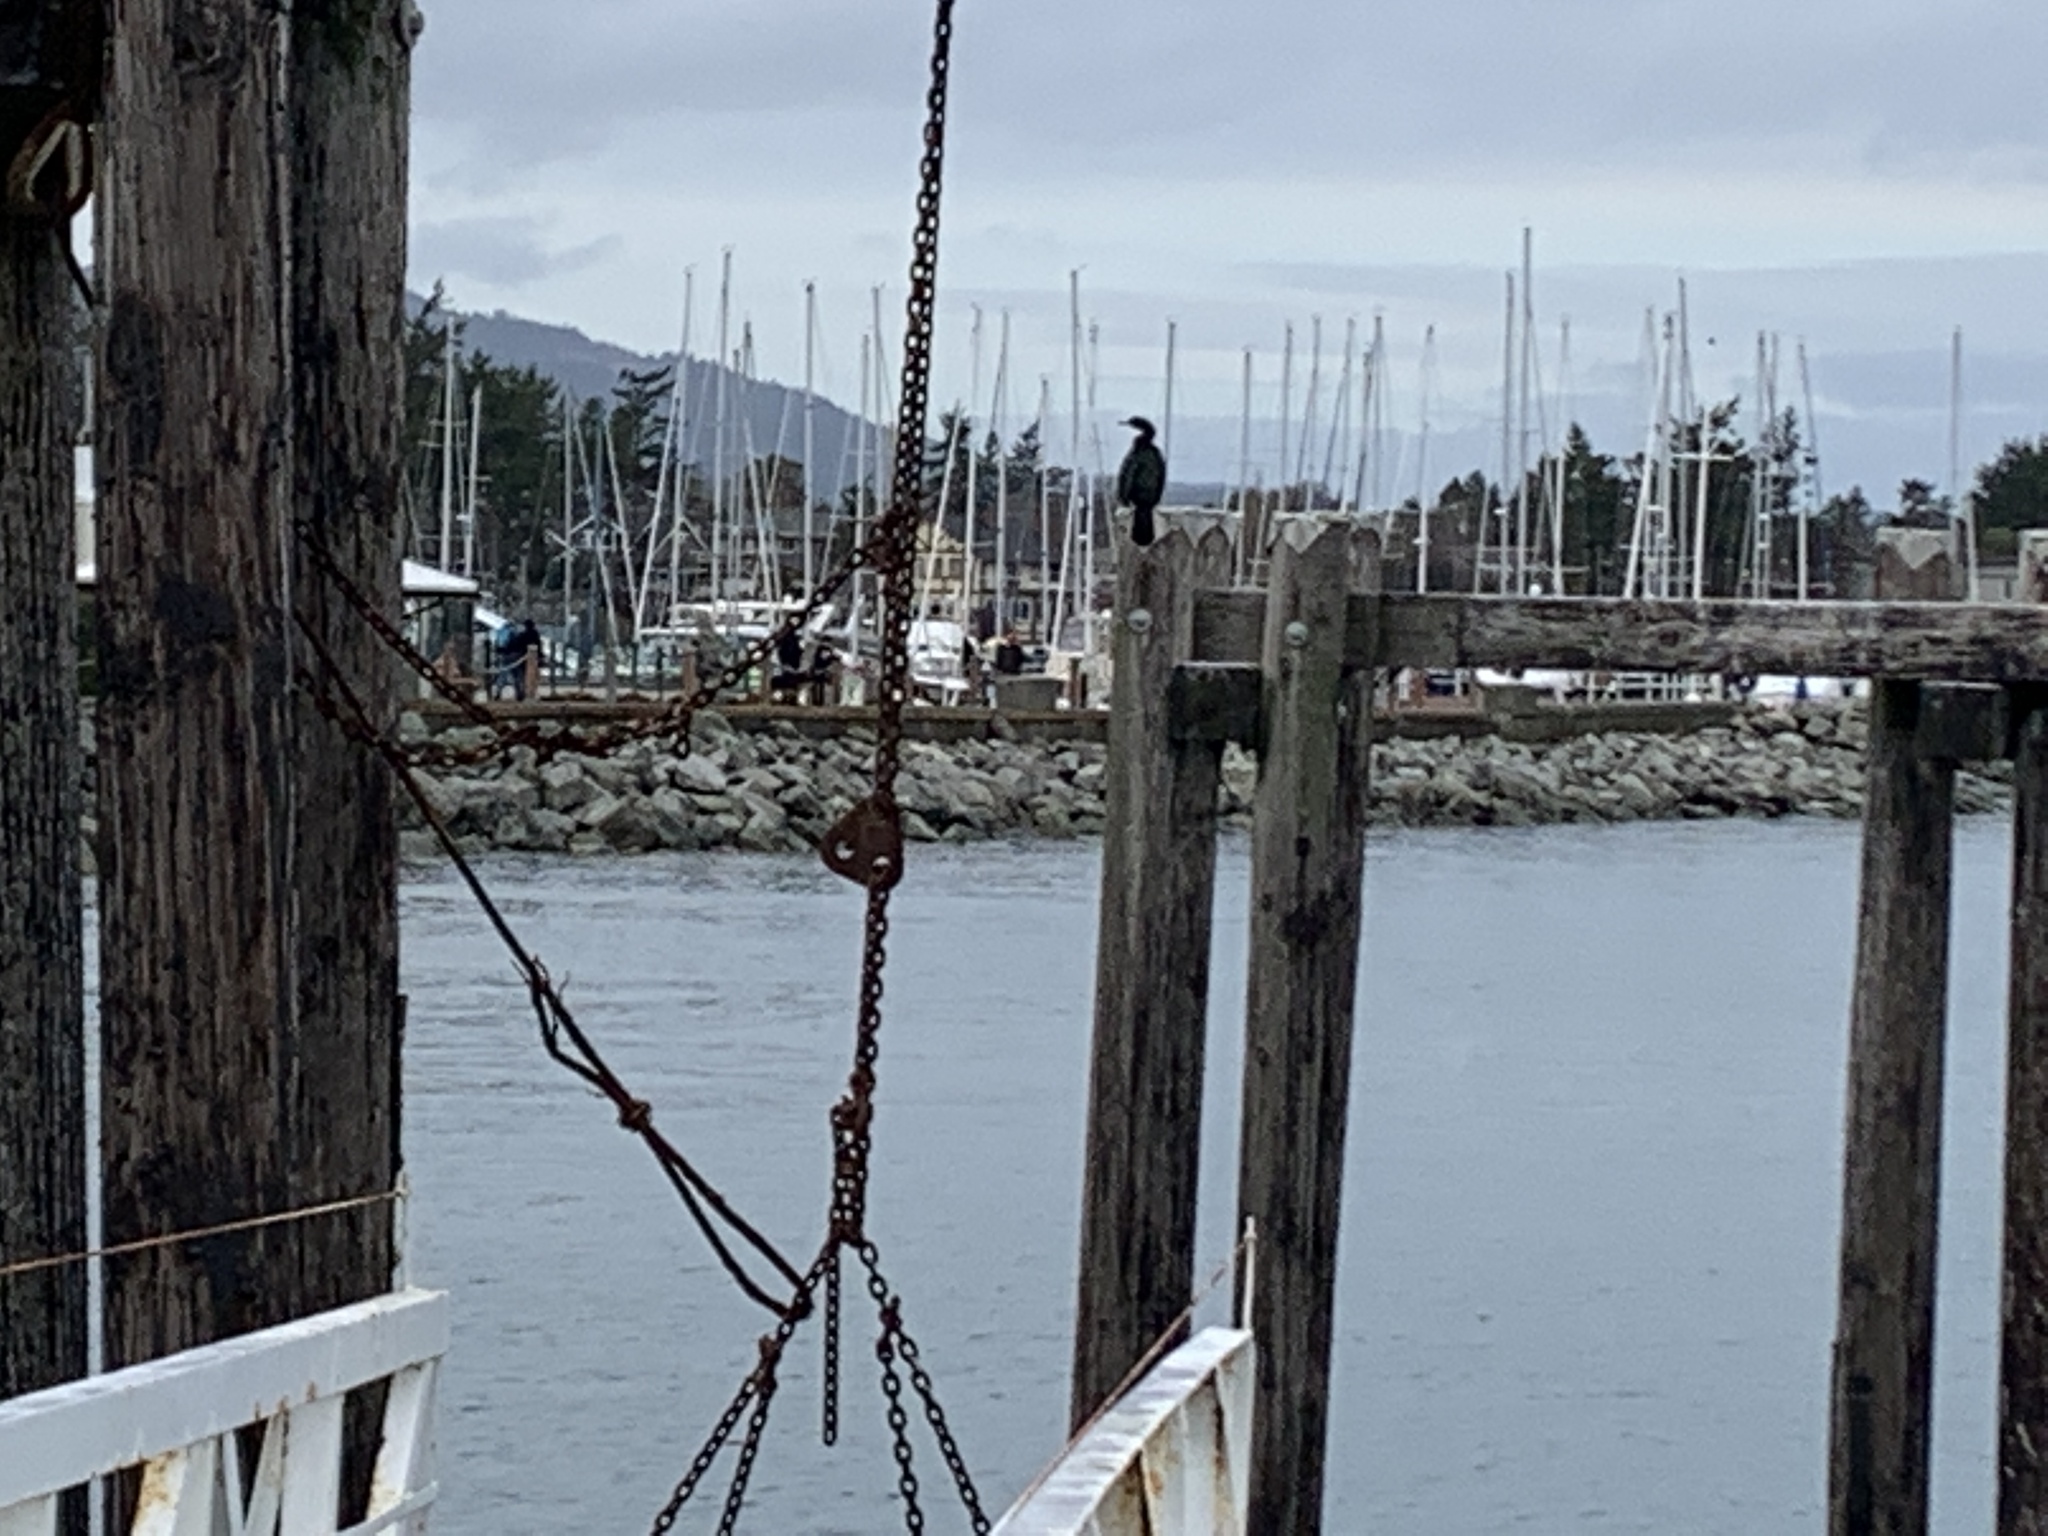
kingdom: Animalia
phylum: Chordata
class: Aves
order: Suliformes
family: Phalacrocoracidae
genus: Phalacrocorax
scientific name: Phalacrocorax pelagicus
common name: Pelagic cormorant
